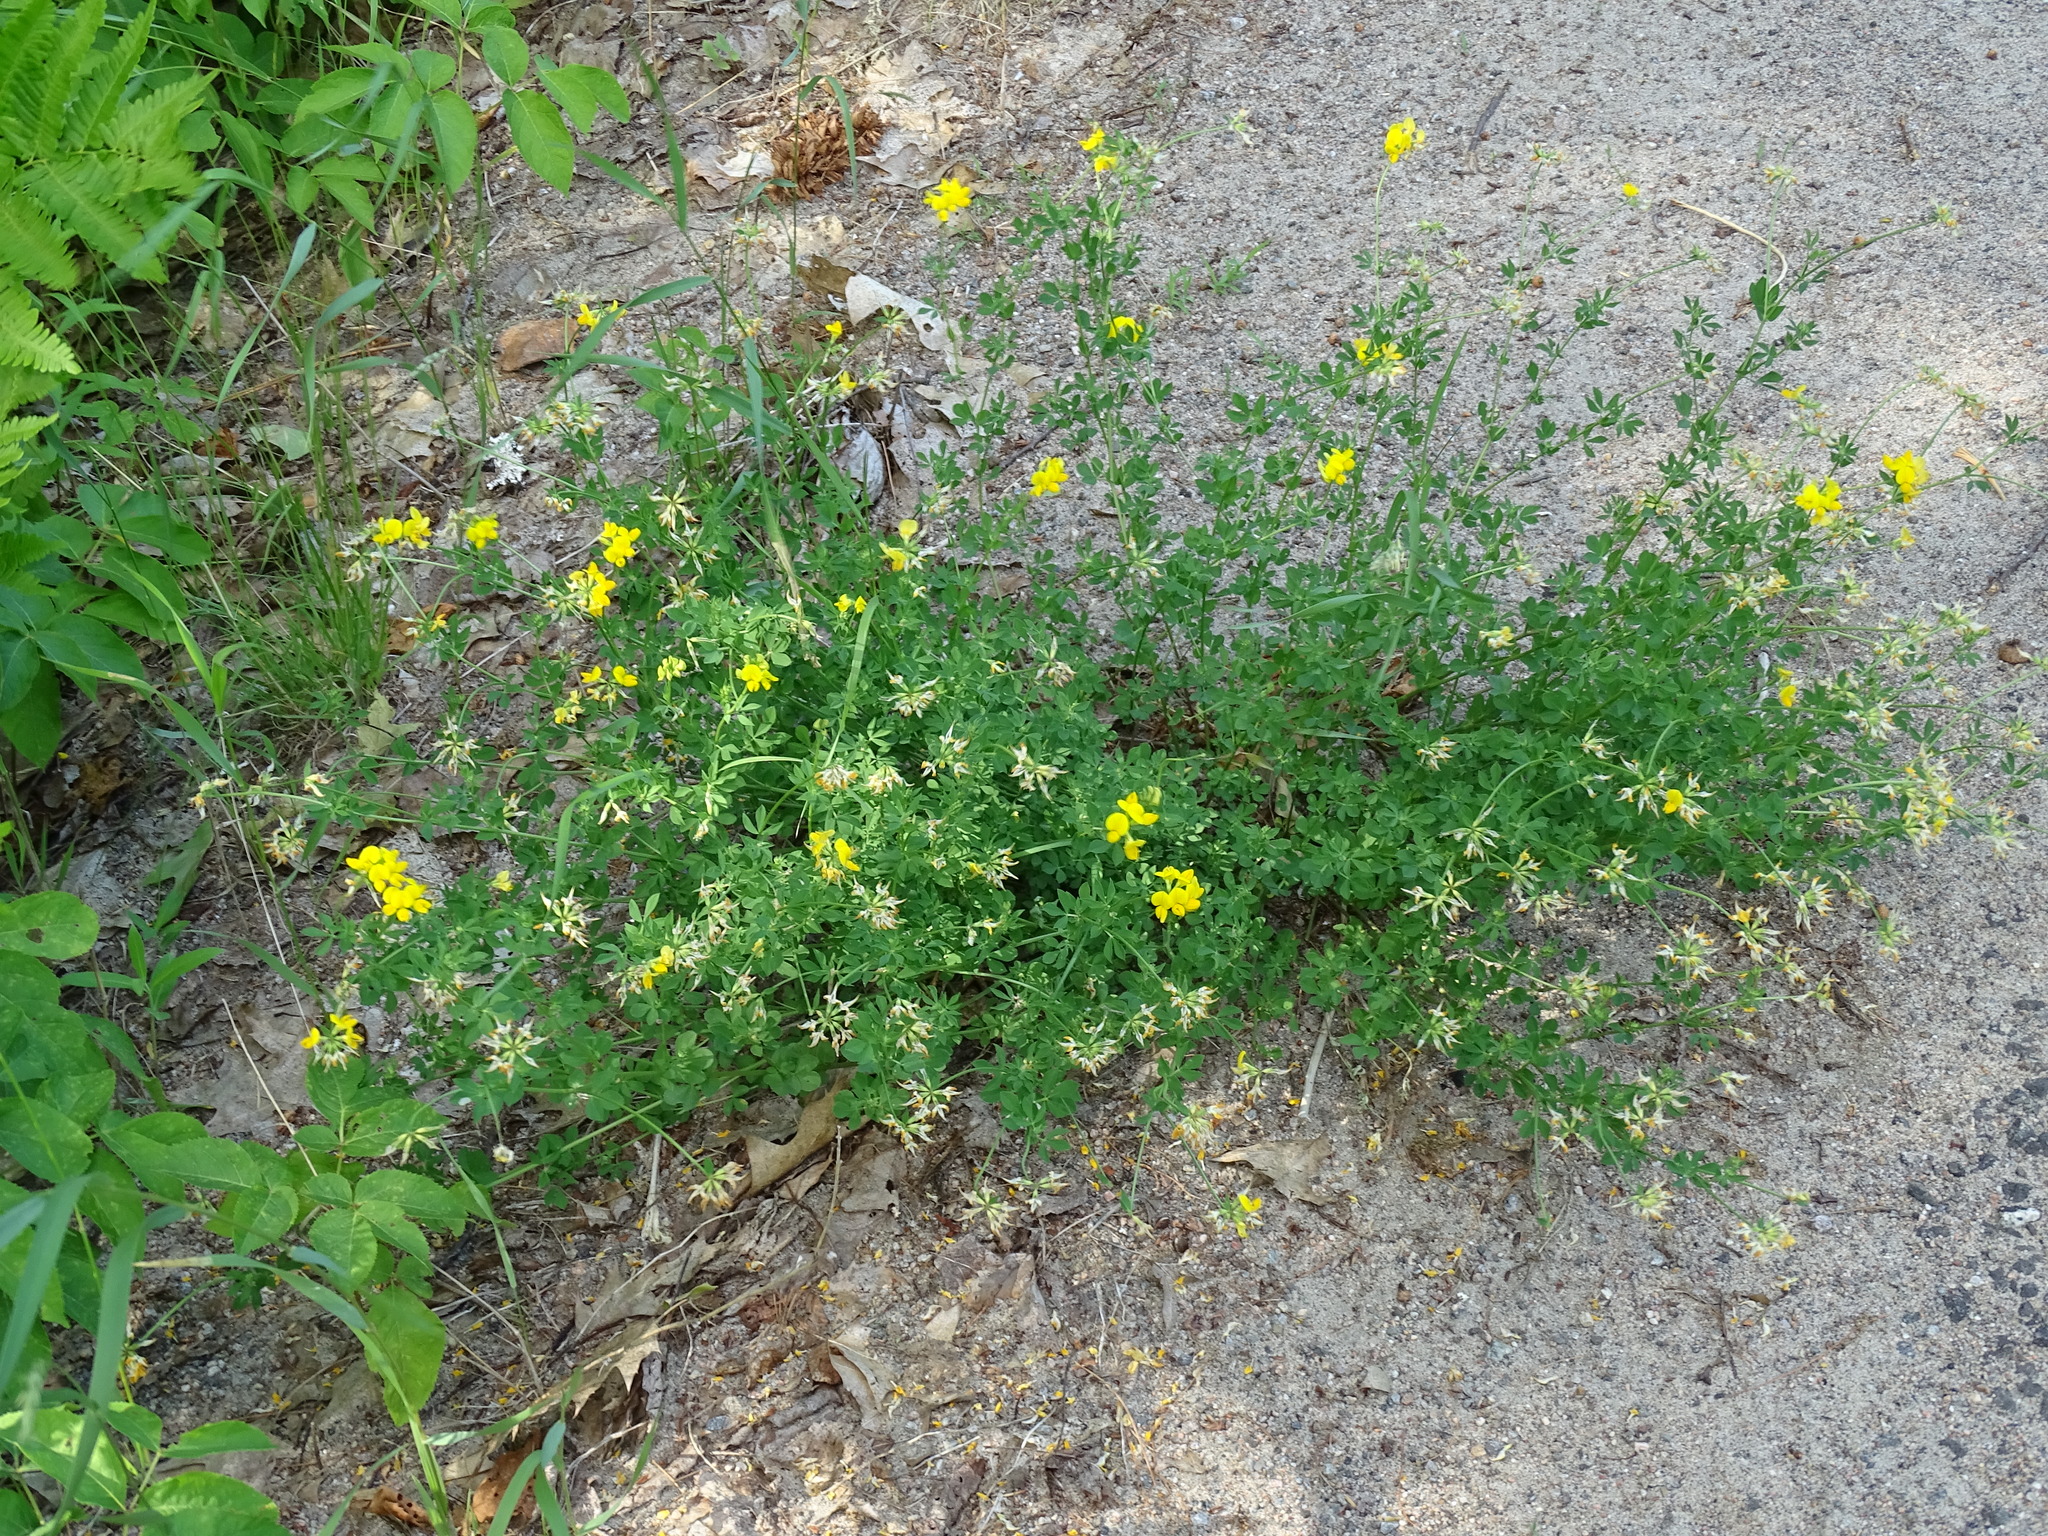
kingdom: Plantae
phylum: Tracheophyta
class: Magnoliopsida
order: Fabales
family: Fabaceae
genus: Lotus
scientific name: Lotus corniculatus
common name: Common bird's-foot-trefoil
